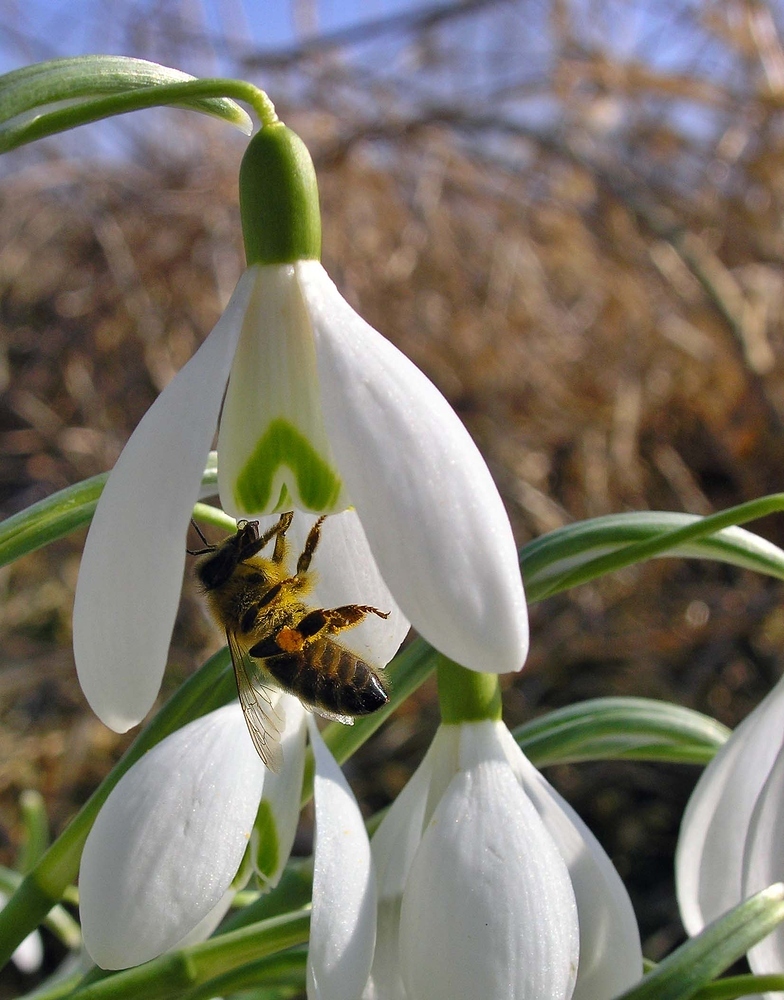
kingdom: Animalia
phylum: Arthropoda
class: Insecta
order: Hymenoptera
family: Apidae
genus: Apis
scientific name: Apis mellifera
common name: Honey bee
